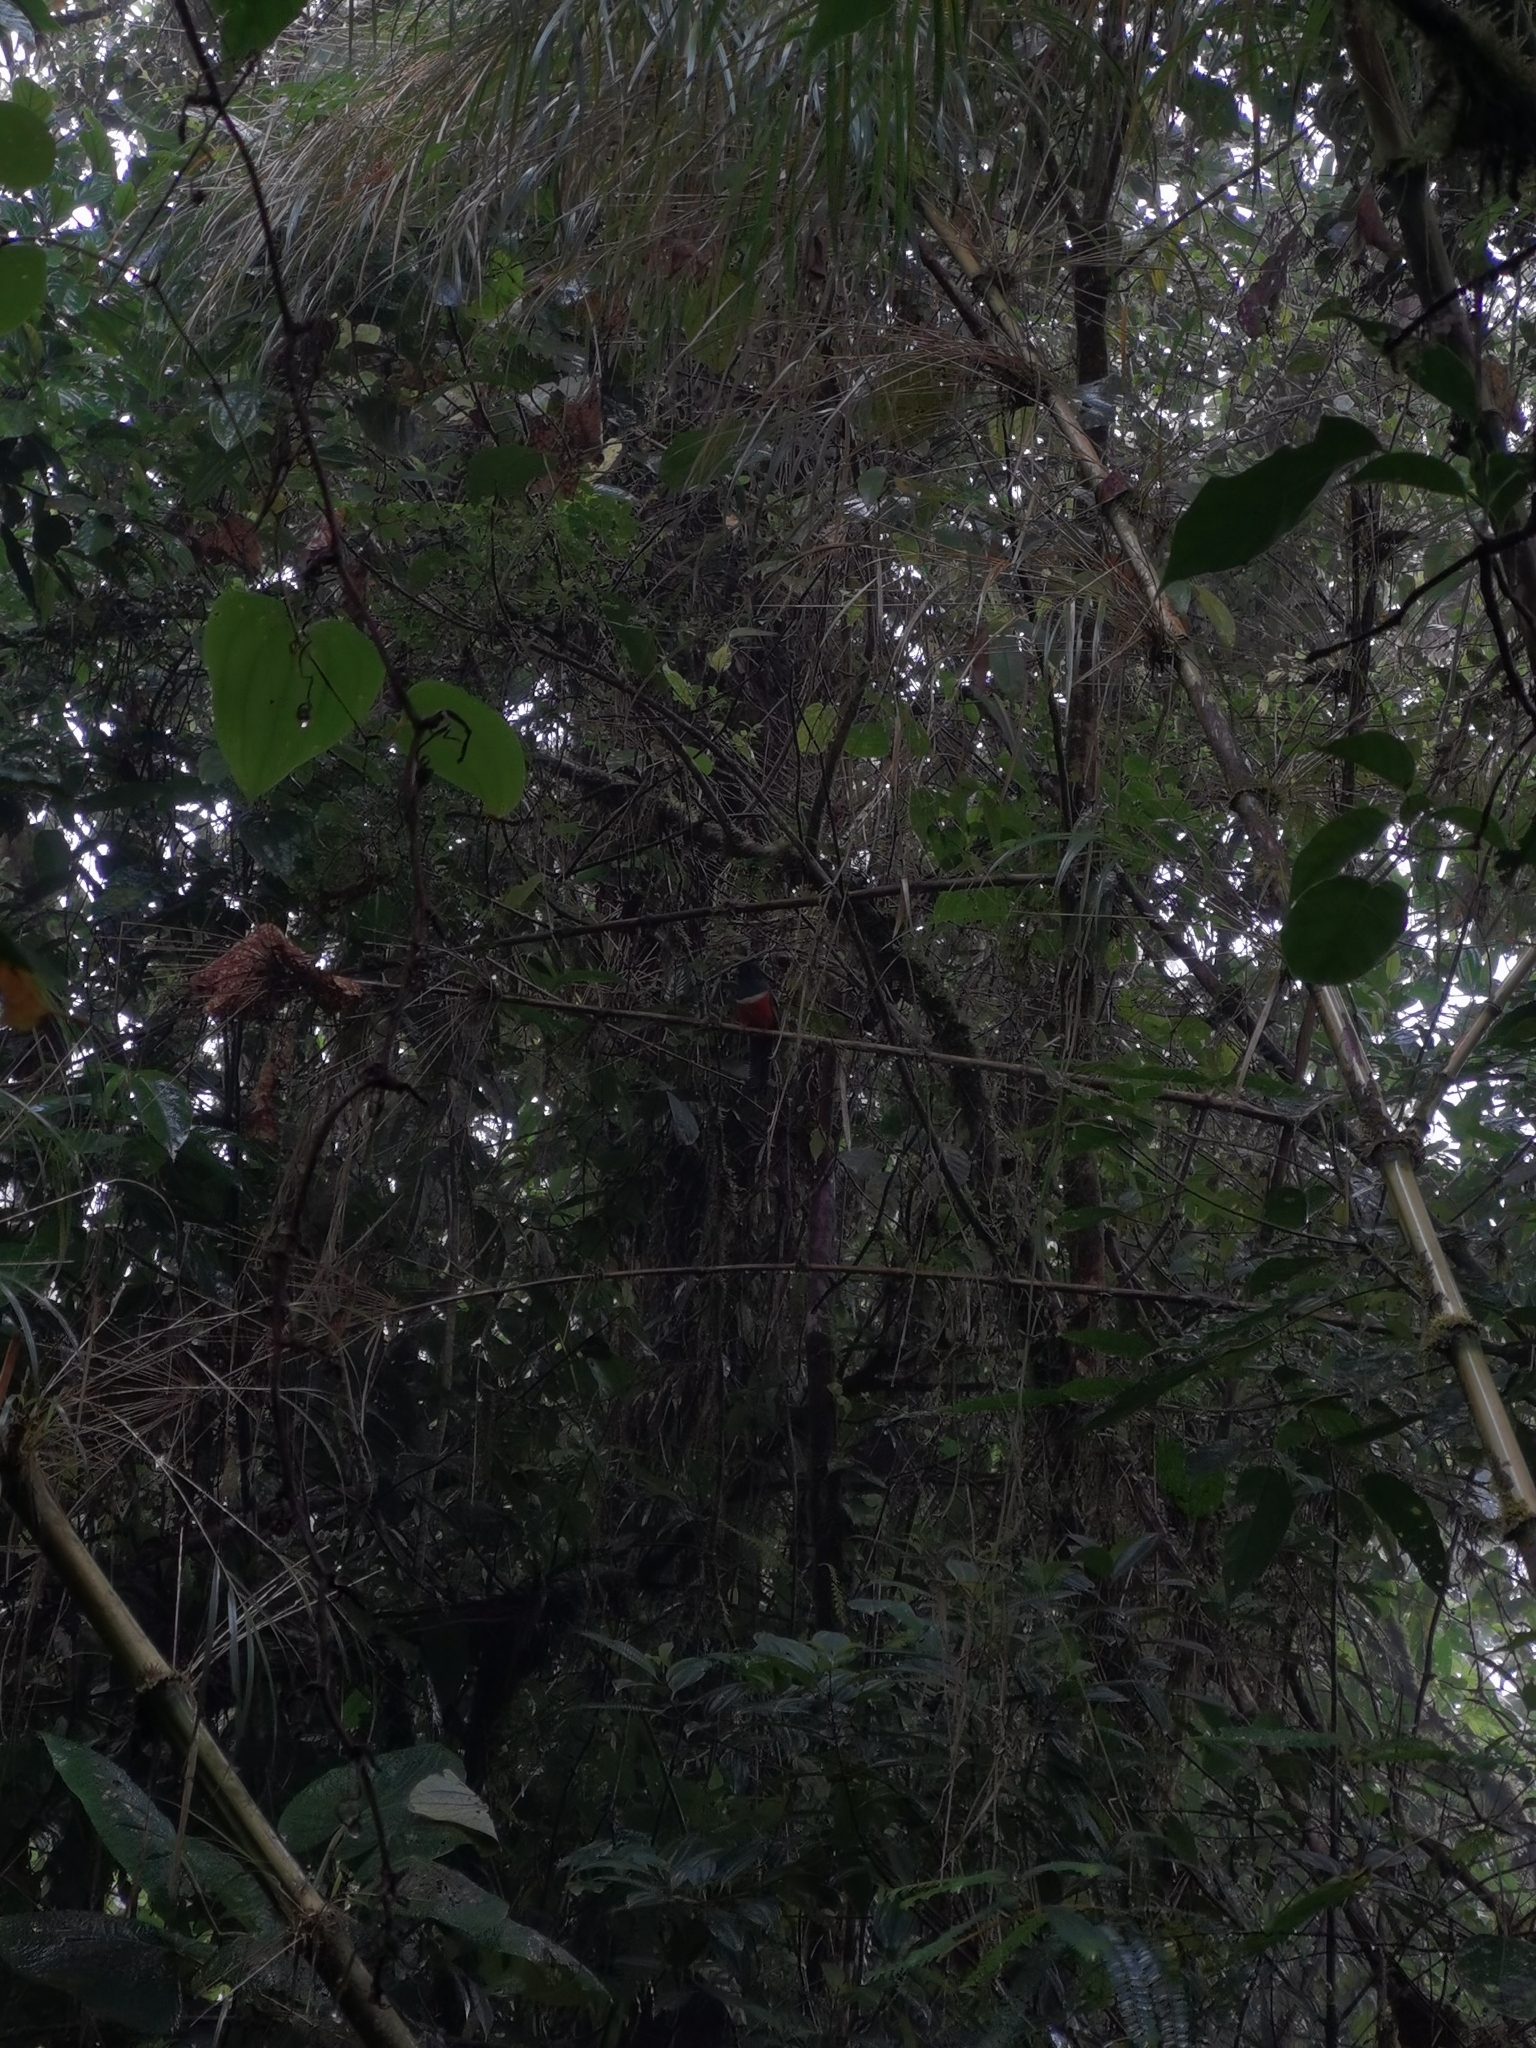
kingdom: Animalia
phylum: Chordata
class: Aves
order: Trogoniformes
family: Trogonidae
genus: Trogon
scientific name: Trogon collaris
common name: Collared trogon
